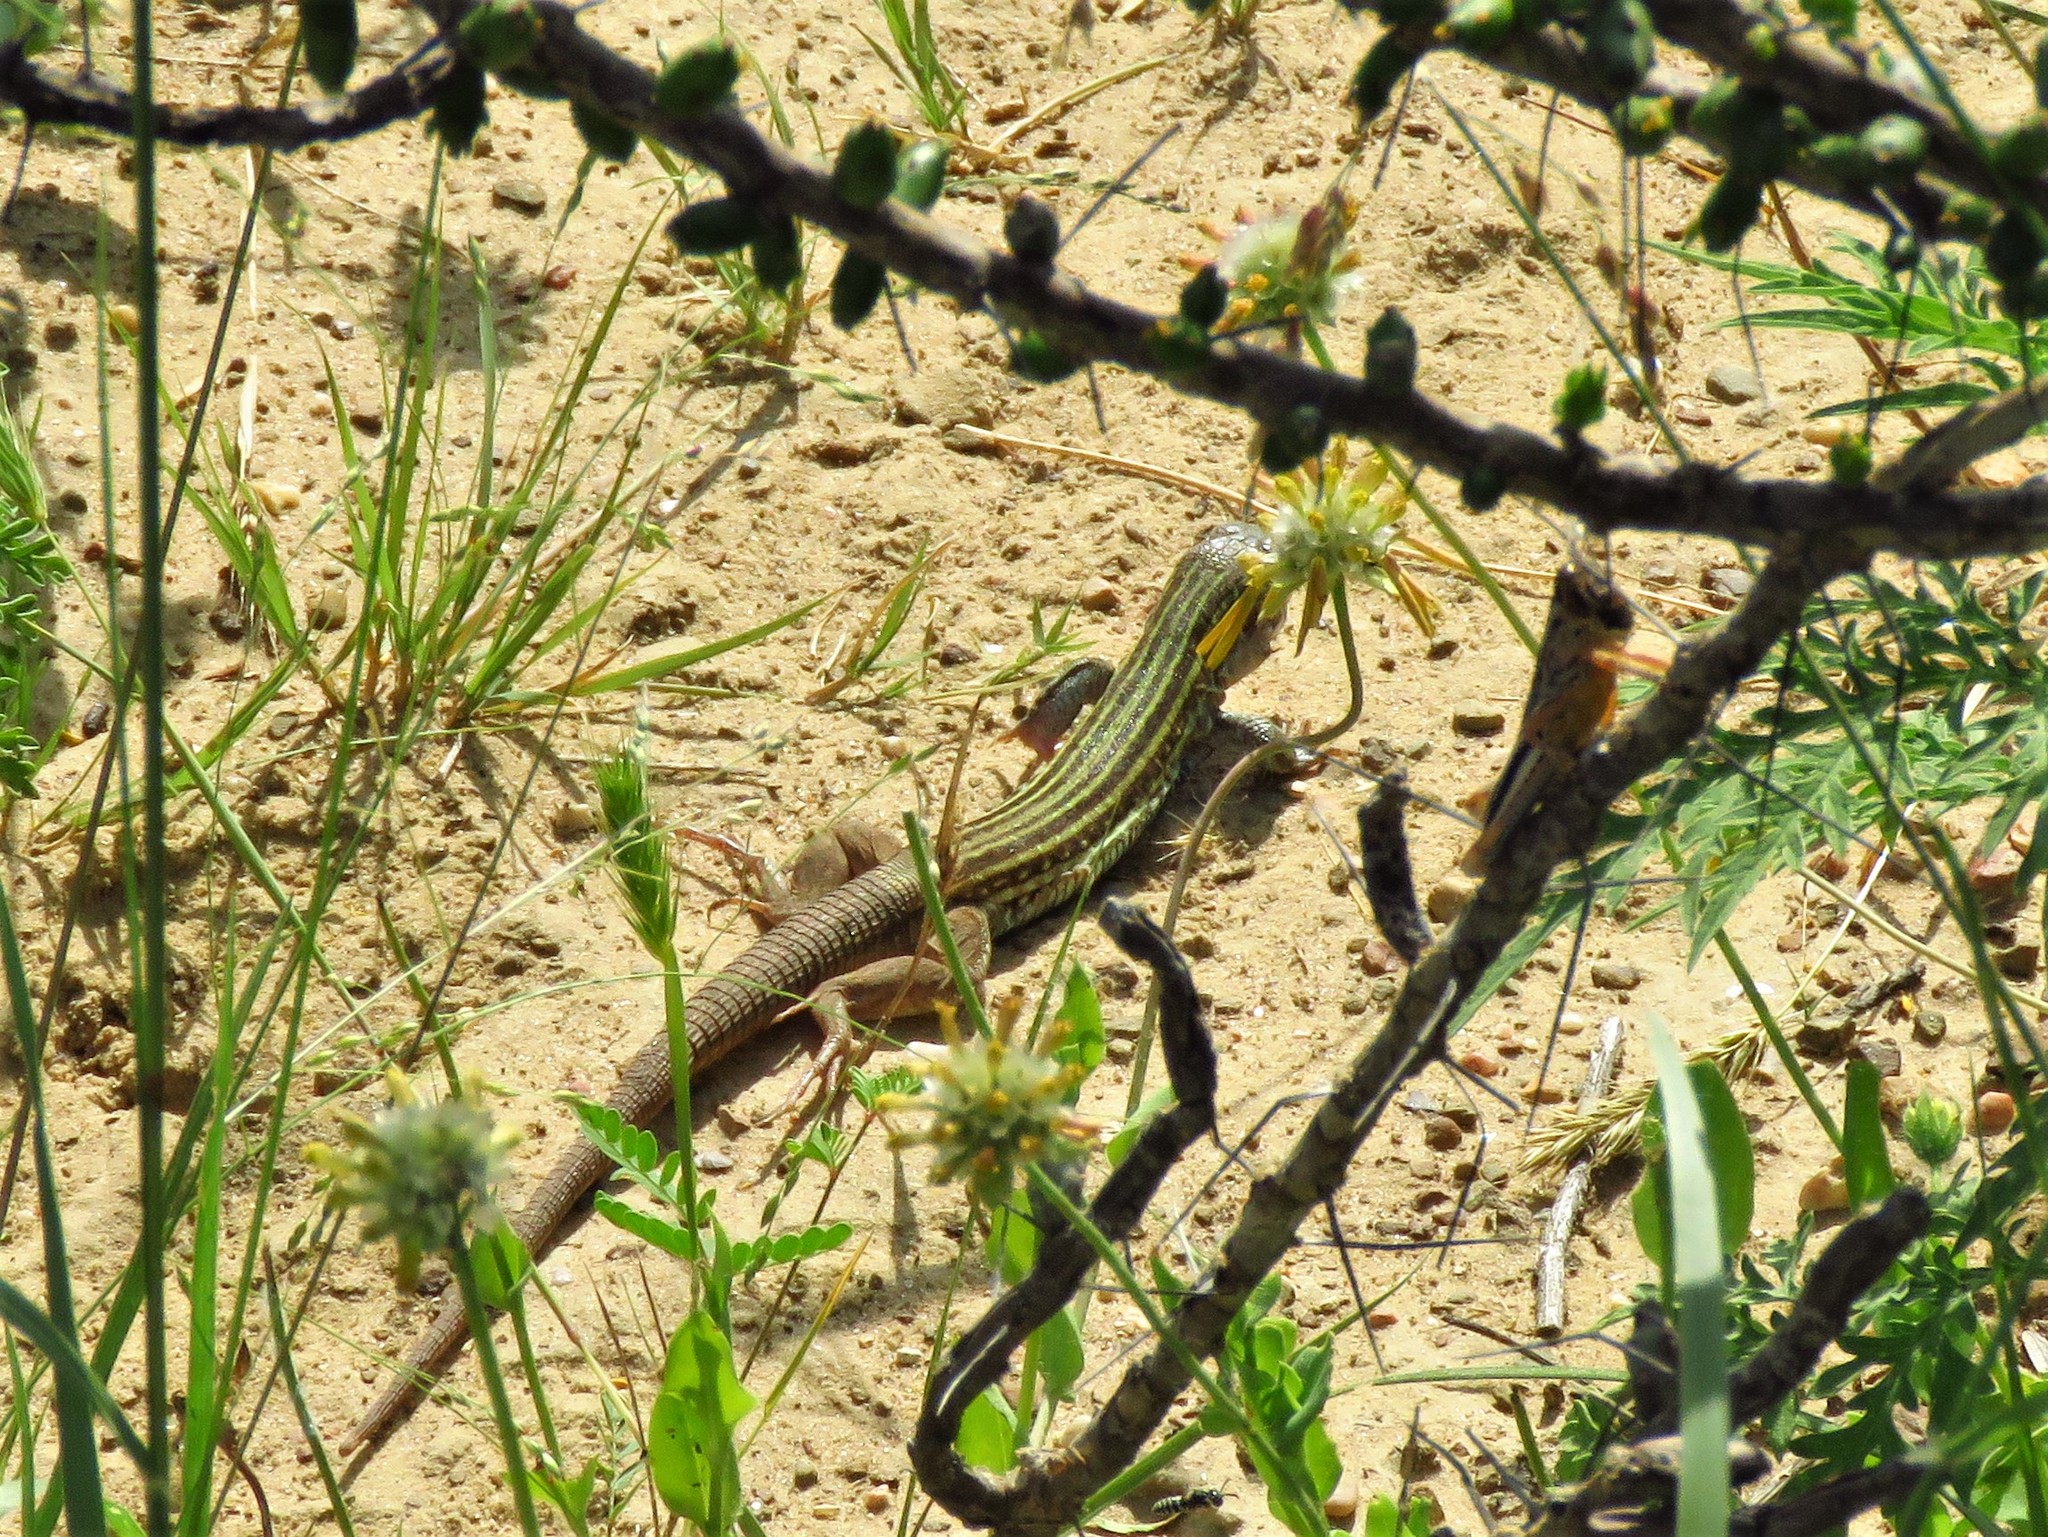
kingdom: Animalia
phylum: Chordata
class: Squamata
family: Teiidae
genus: Aspidoscelis
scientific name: Aspidoscelis gularis
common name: Eastern spotted whiptail
